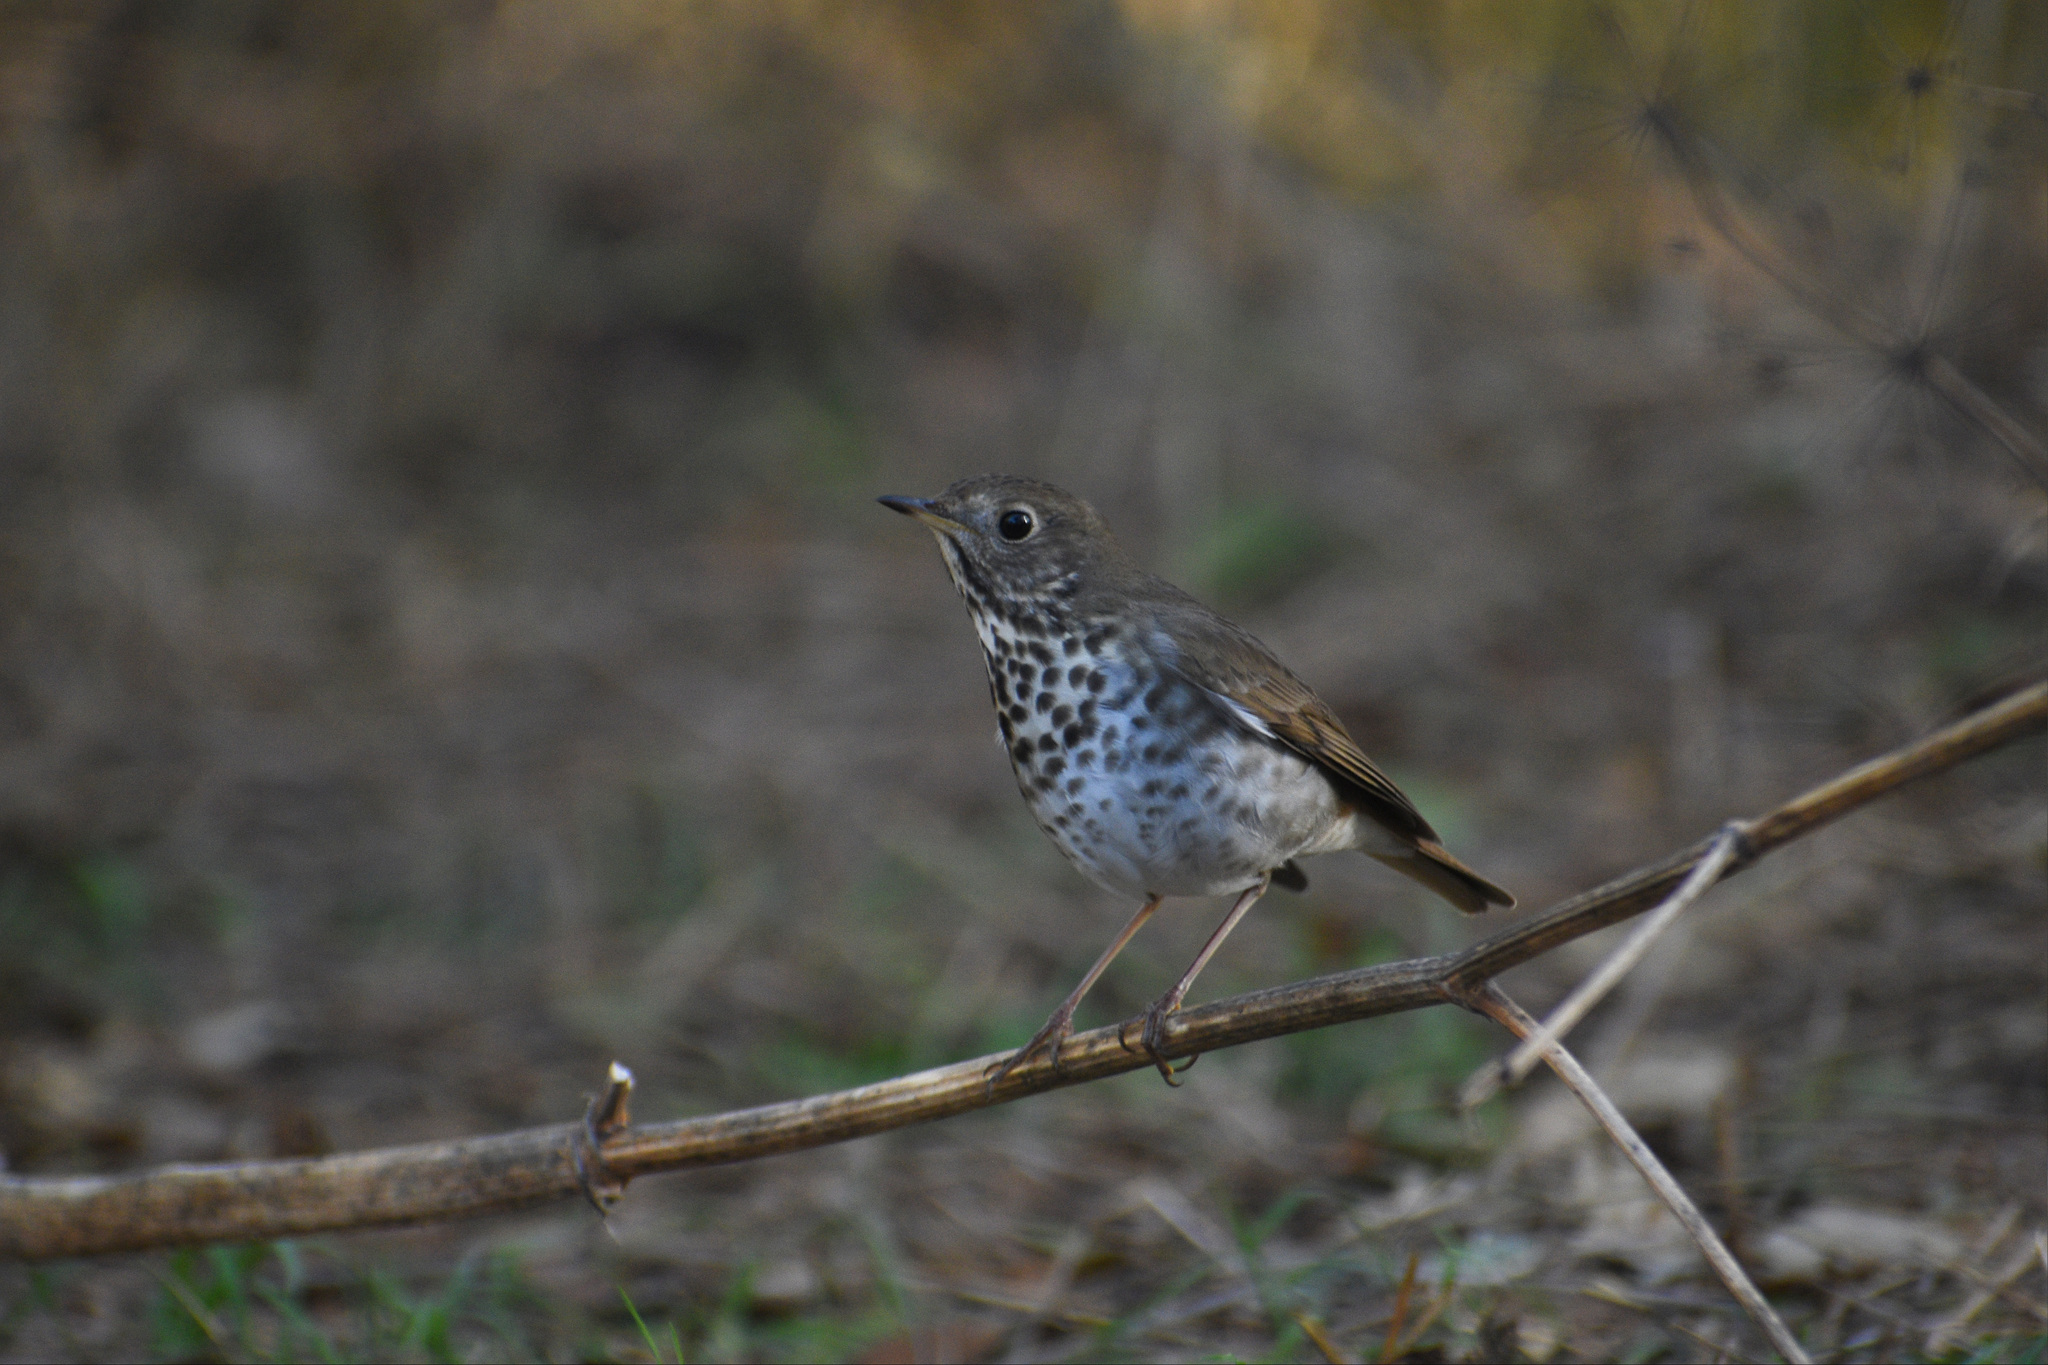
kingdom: Animalia
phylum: Chordata
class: Aves
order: Passeriformes
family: Turdidae
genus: Catharus
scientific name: Catharus guttatus
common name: Hermit thrush
